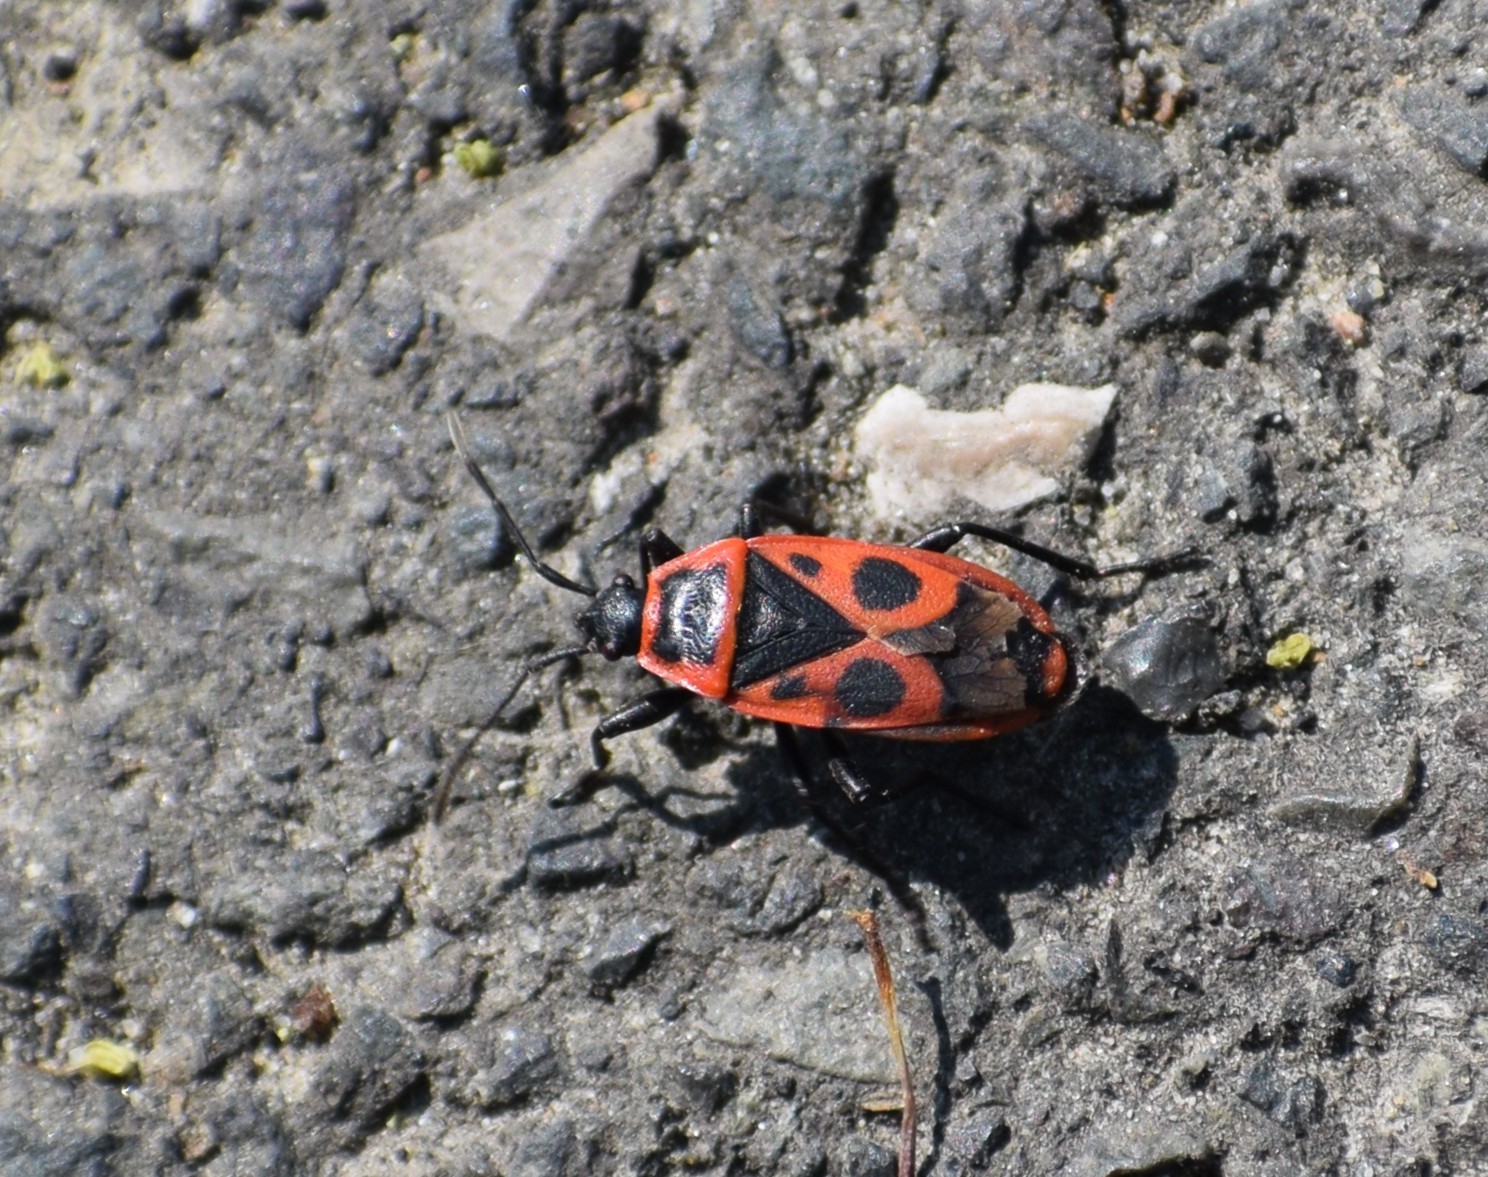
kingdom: Animalia
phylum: Arthropoda
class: Insecta
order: Hemiptera
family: Pyrrhocoridae
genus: Pyrrhocoris
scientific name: Pyrrhocoris apterus
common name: Firebug
